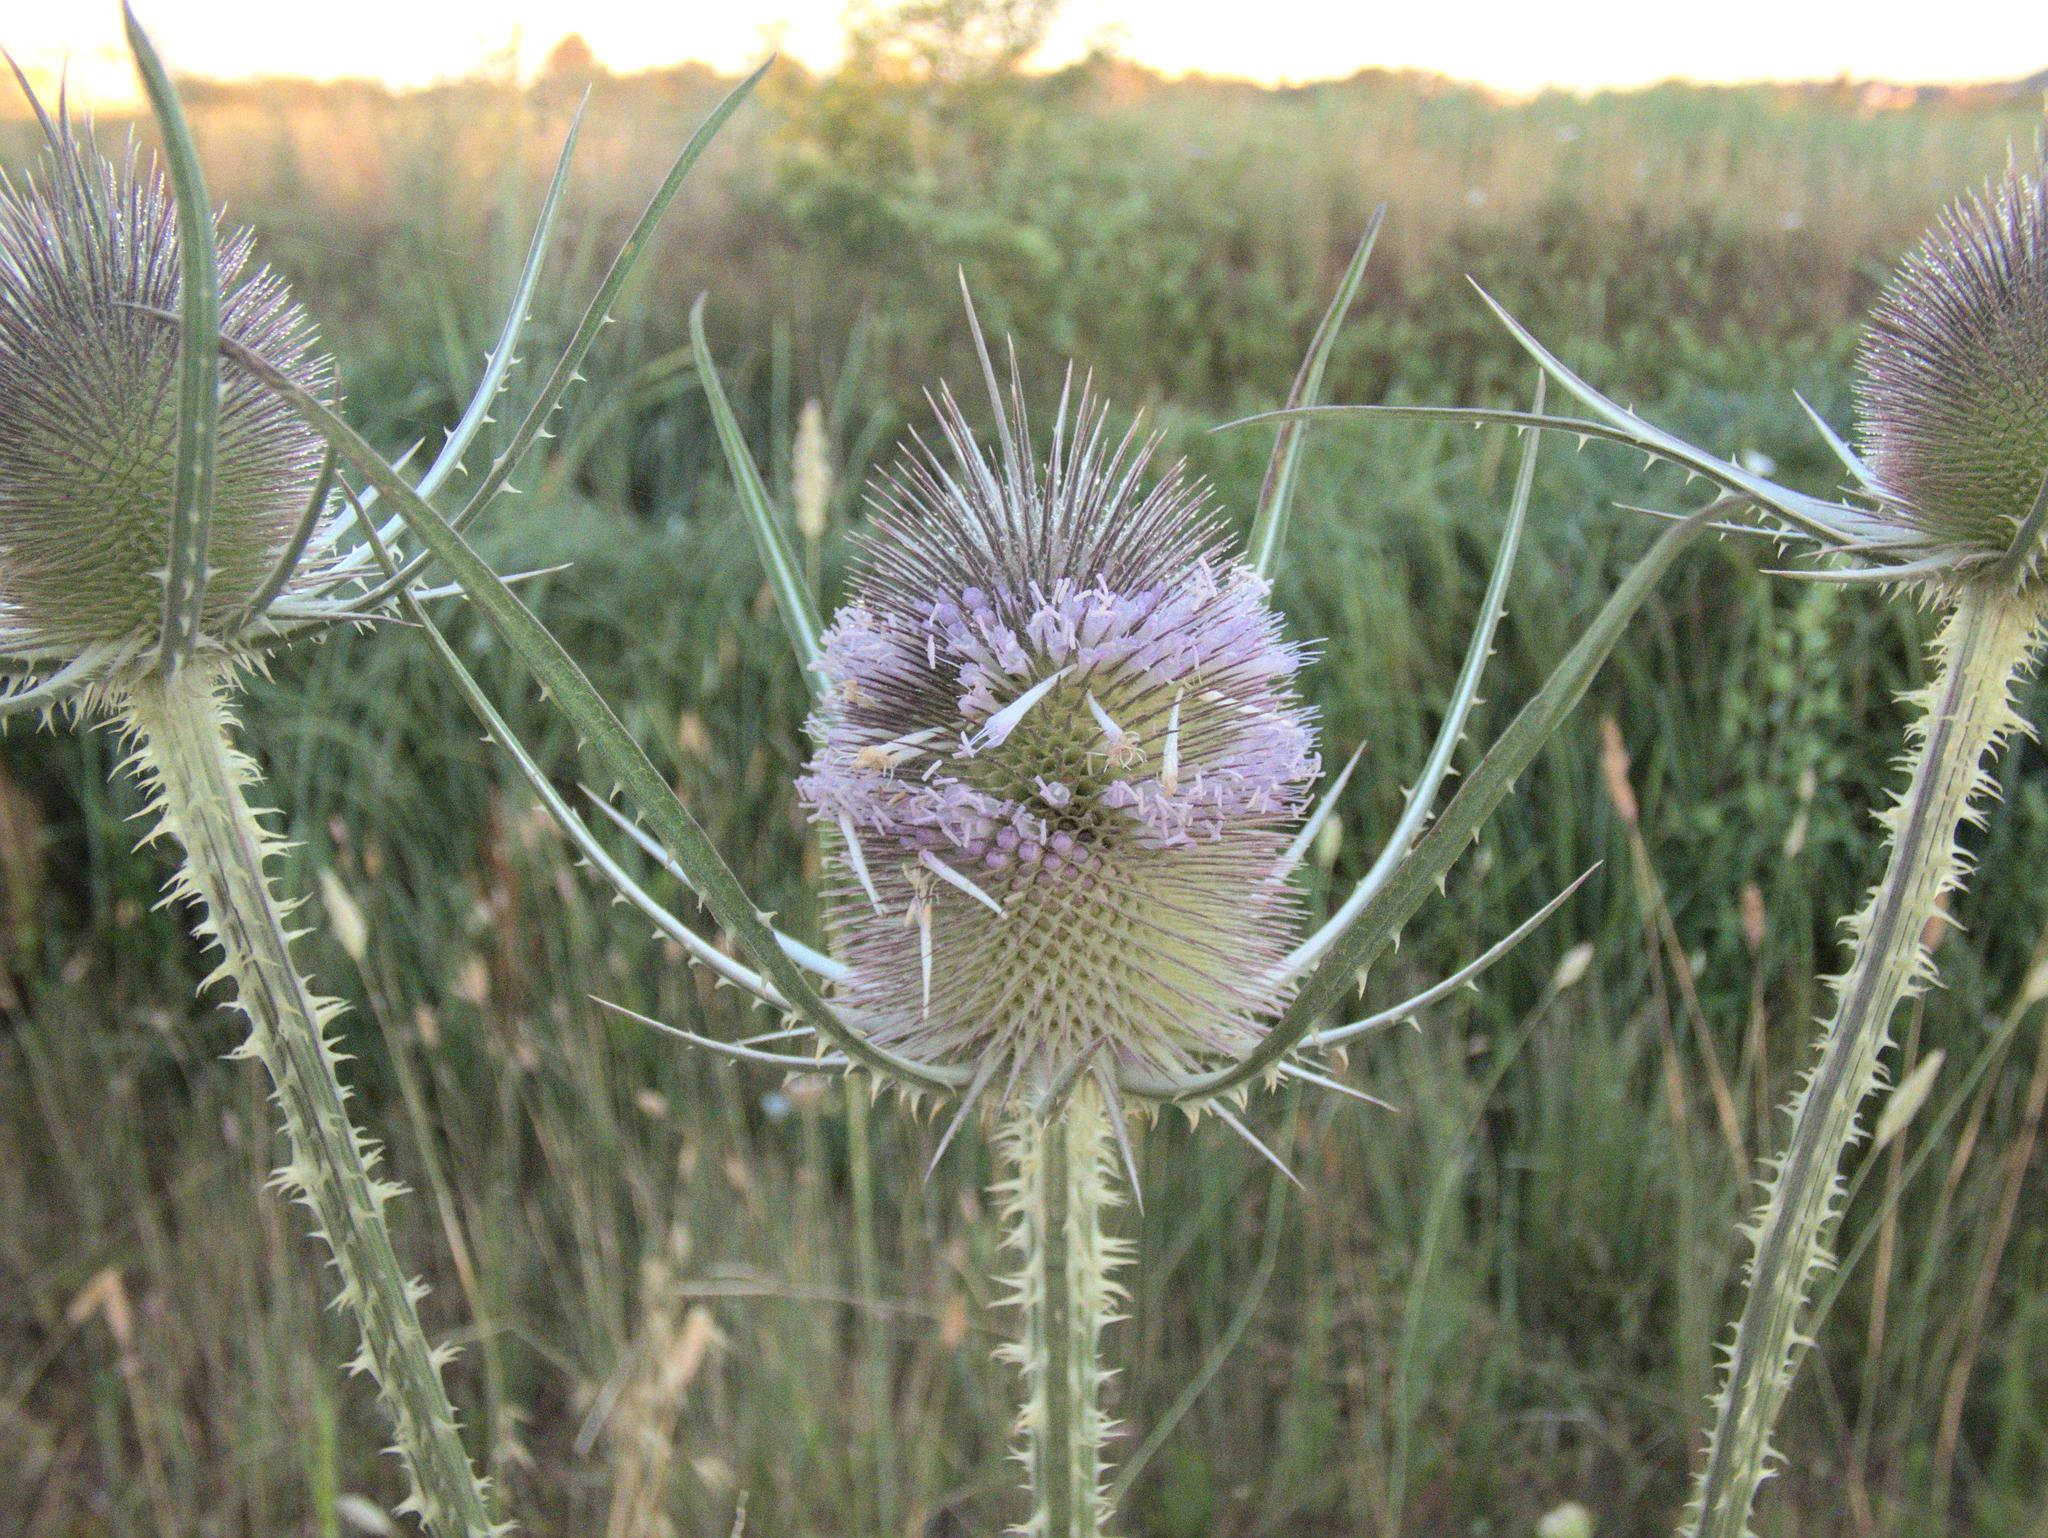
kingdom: Plantae
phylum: Tracheophyta
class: Magnoliopsida
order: Dipsacales
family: Caprifoliaceae
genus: Dipsacus
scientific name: Dipsacus fullonum
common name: Teasel
